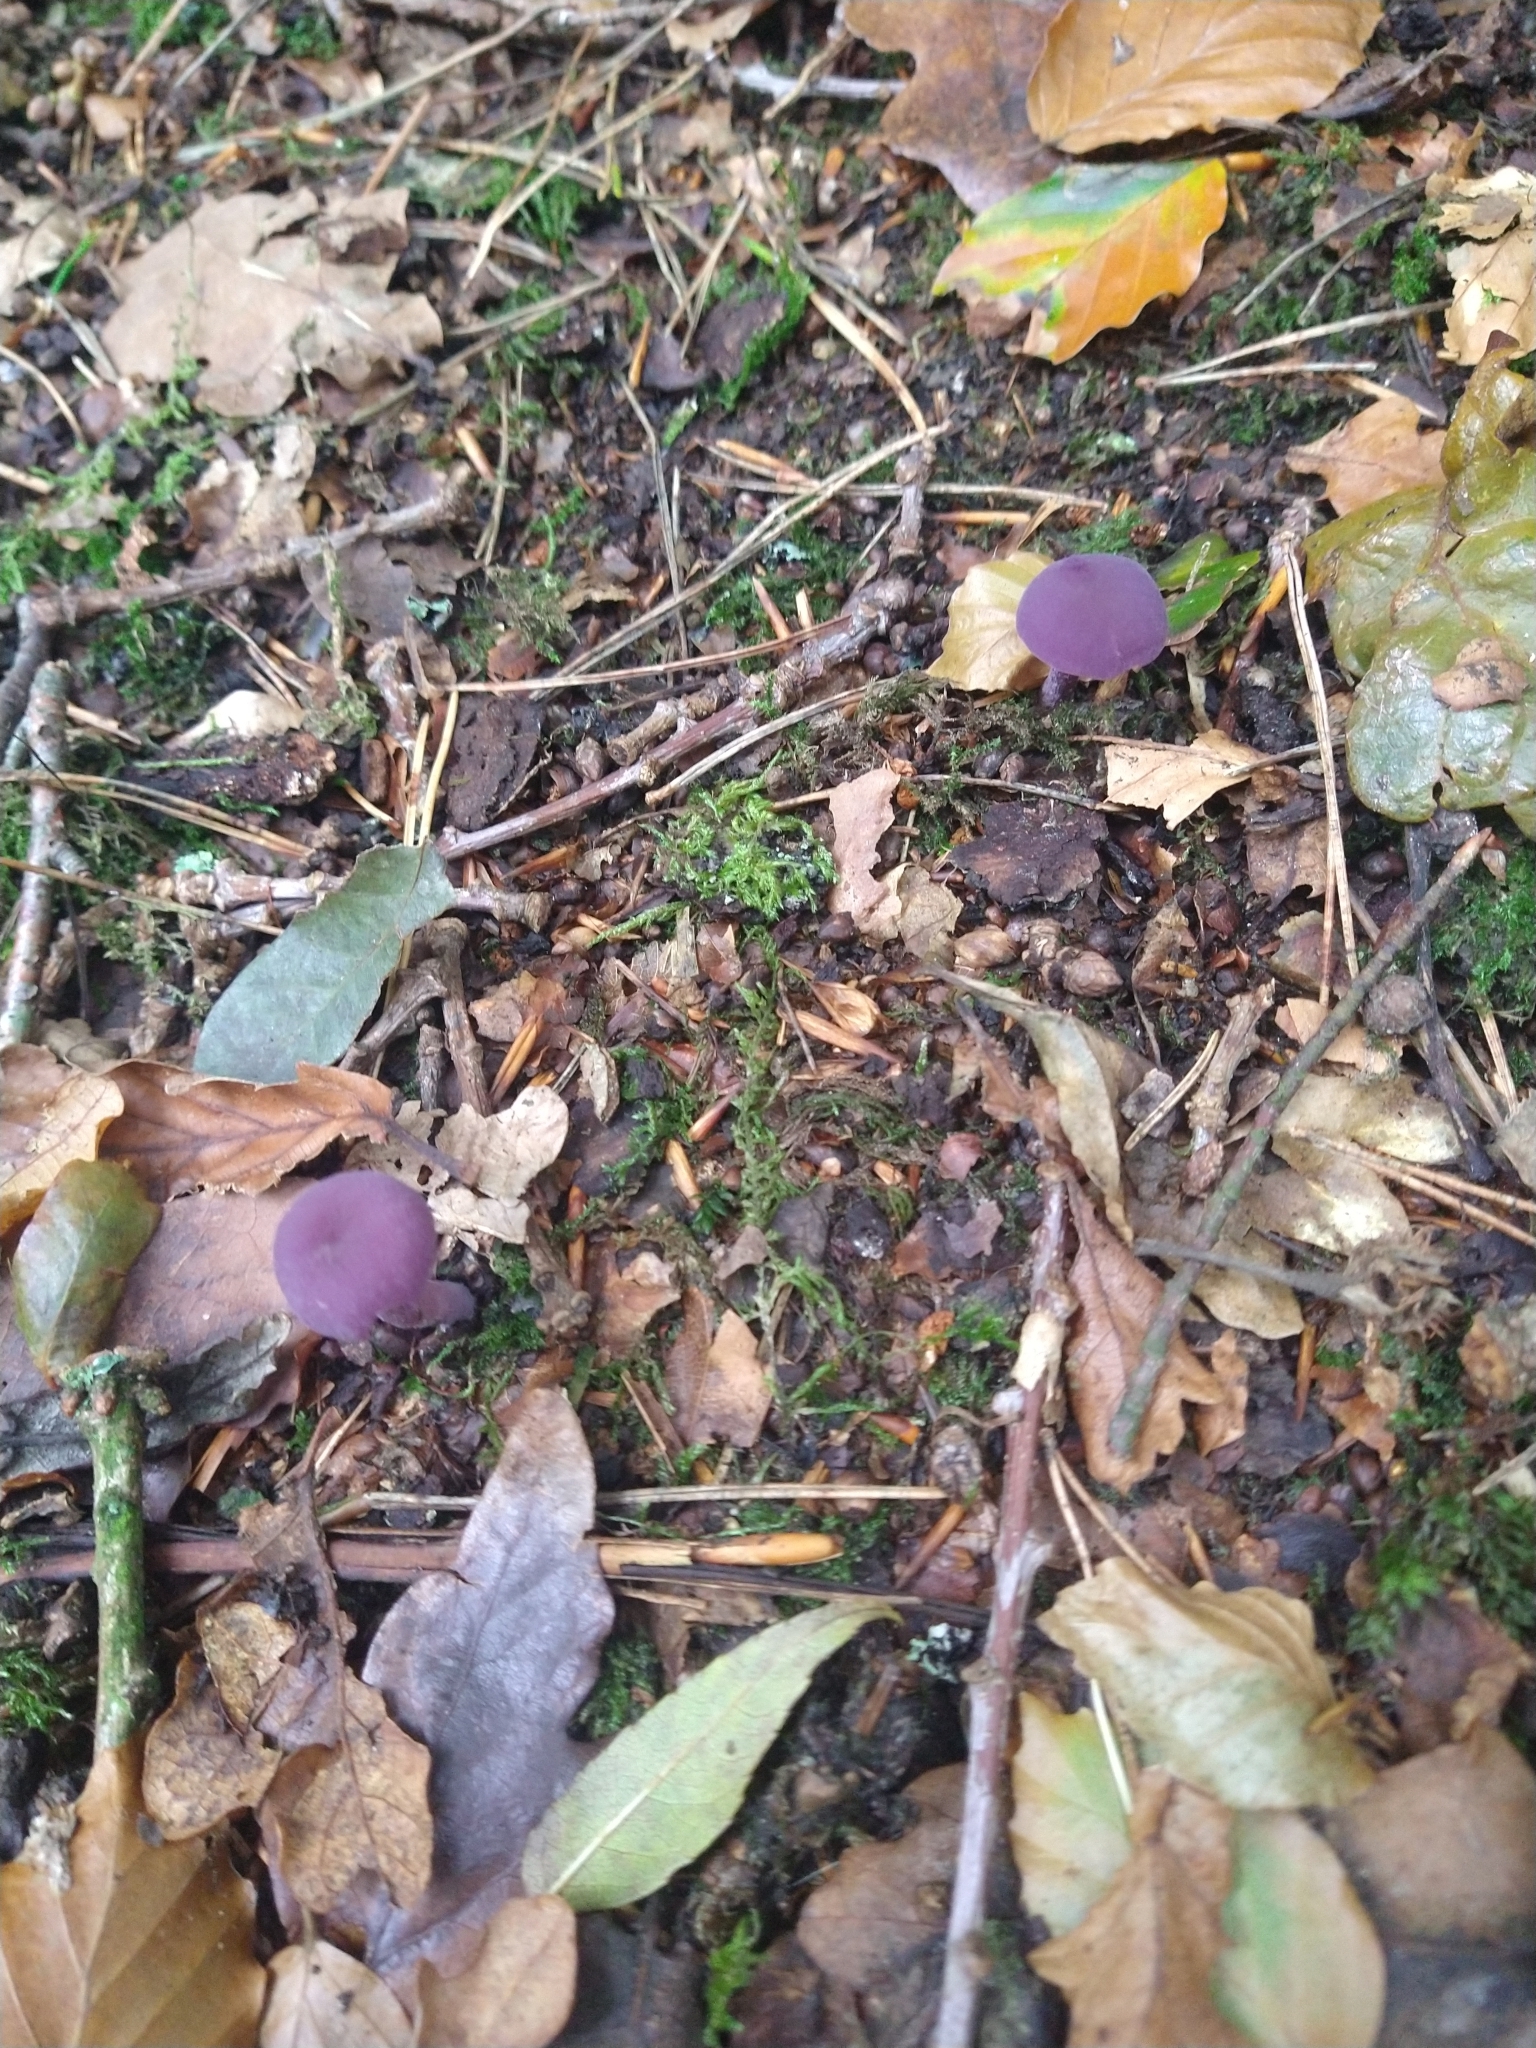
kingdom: Fungi
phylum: Basidiomycota
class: Agaricomycetes
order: Agaricales
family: Hydnangiaceae
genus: Laccaria
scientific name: Laccaria amethystina
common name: Amethyst deceiver
